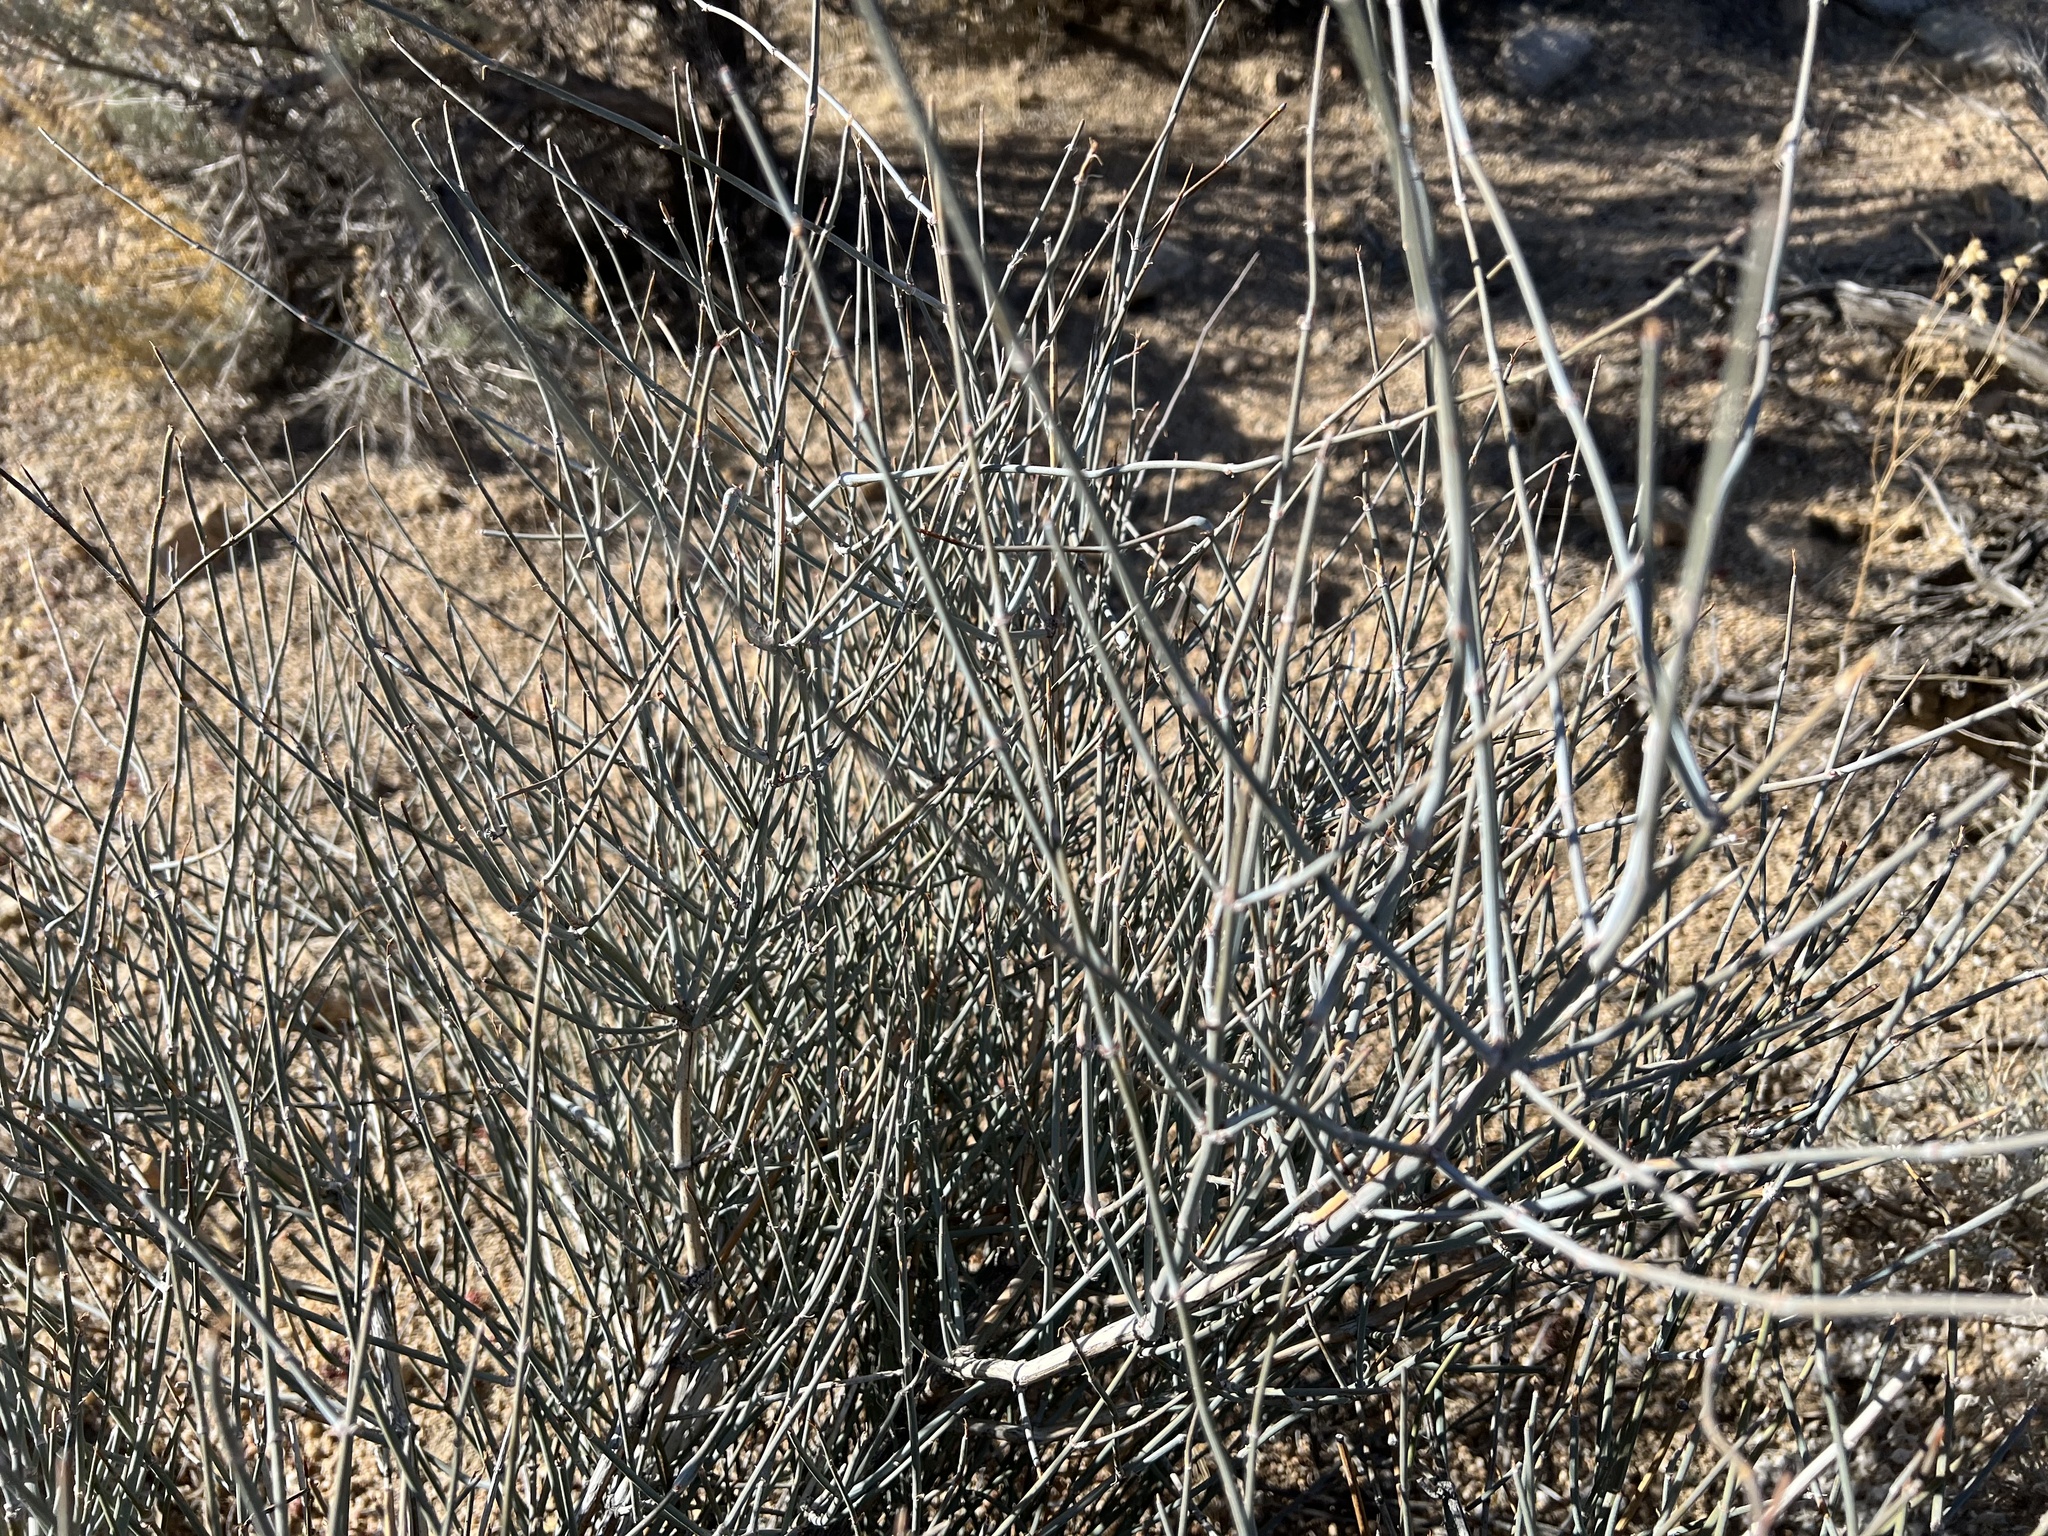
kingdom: Plantae
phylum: Tracheophyta
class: Gnetopsida
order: Ephedrales
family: Ephedraceae
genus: Ephedra
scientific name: Ephedra nevadensis
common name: Gray ephedra
